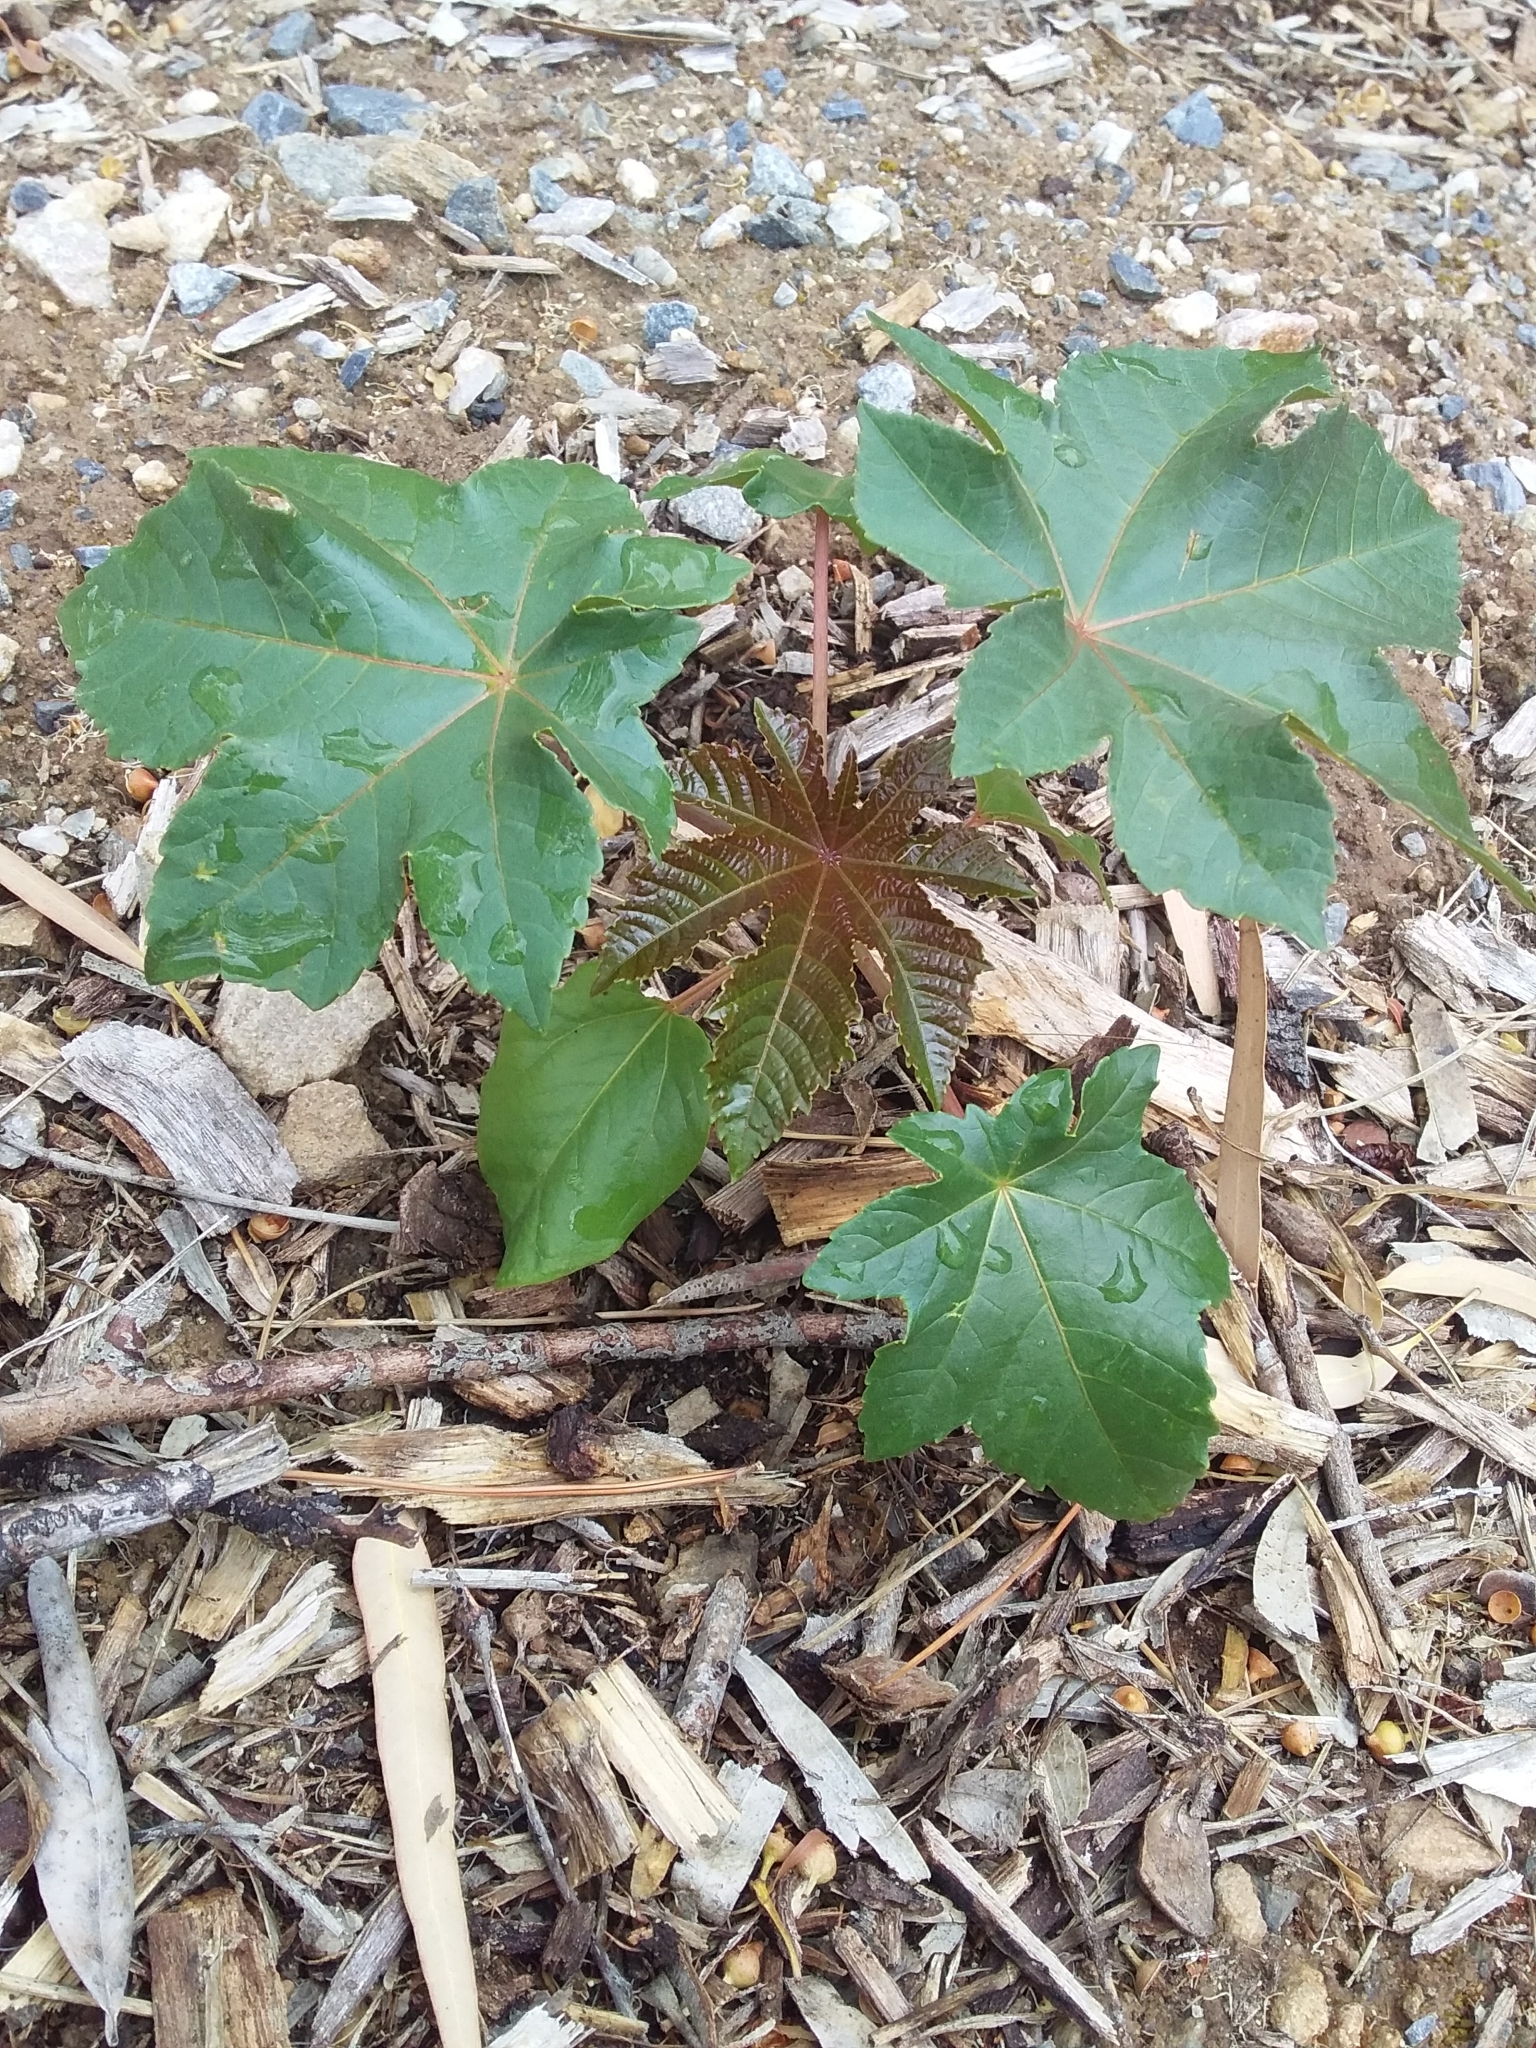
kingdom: Plantae
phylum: Tracheophyta
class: Magnoliopsida
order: Malpighiales
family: Euphorbiaceae
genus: Ricinus
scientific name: Ricinus communis
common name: Castor-oil-plant
